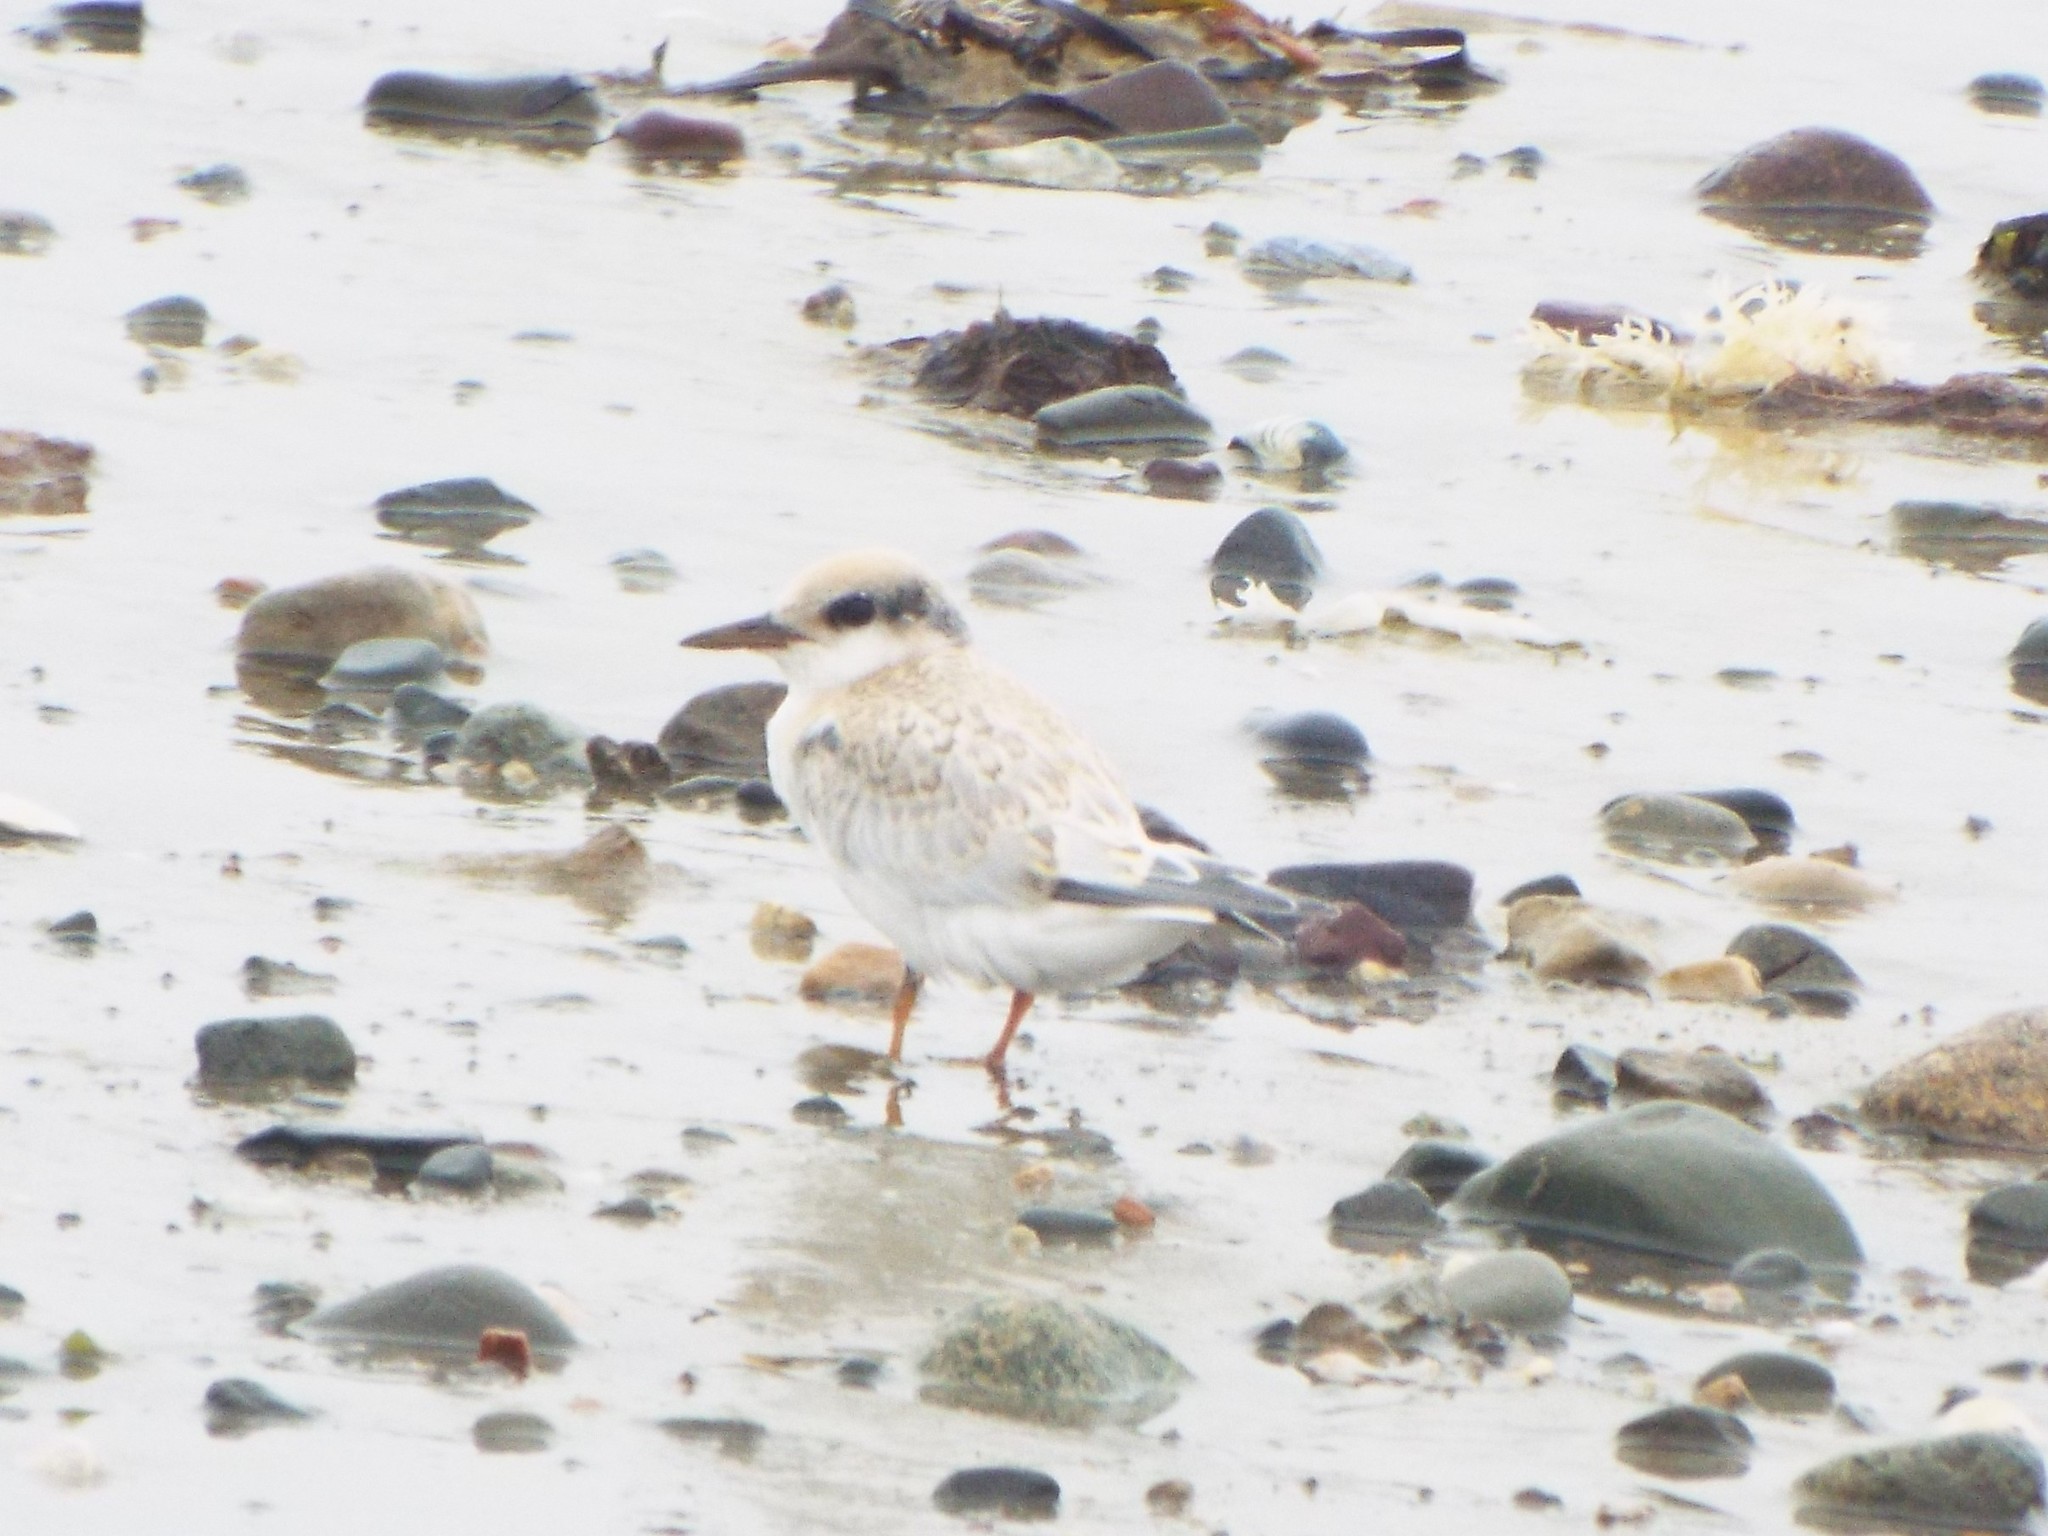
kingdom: Animalia
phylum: Chordata
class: Aves
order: Charadriiformes
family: Laridae
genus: Sternula
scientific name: Sternula antillarum
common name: Least tern
